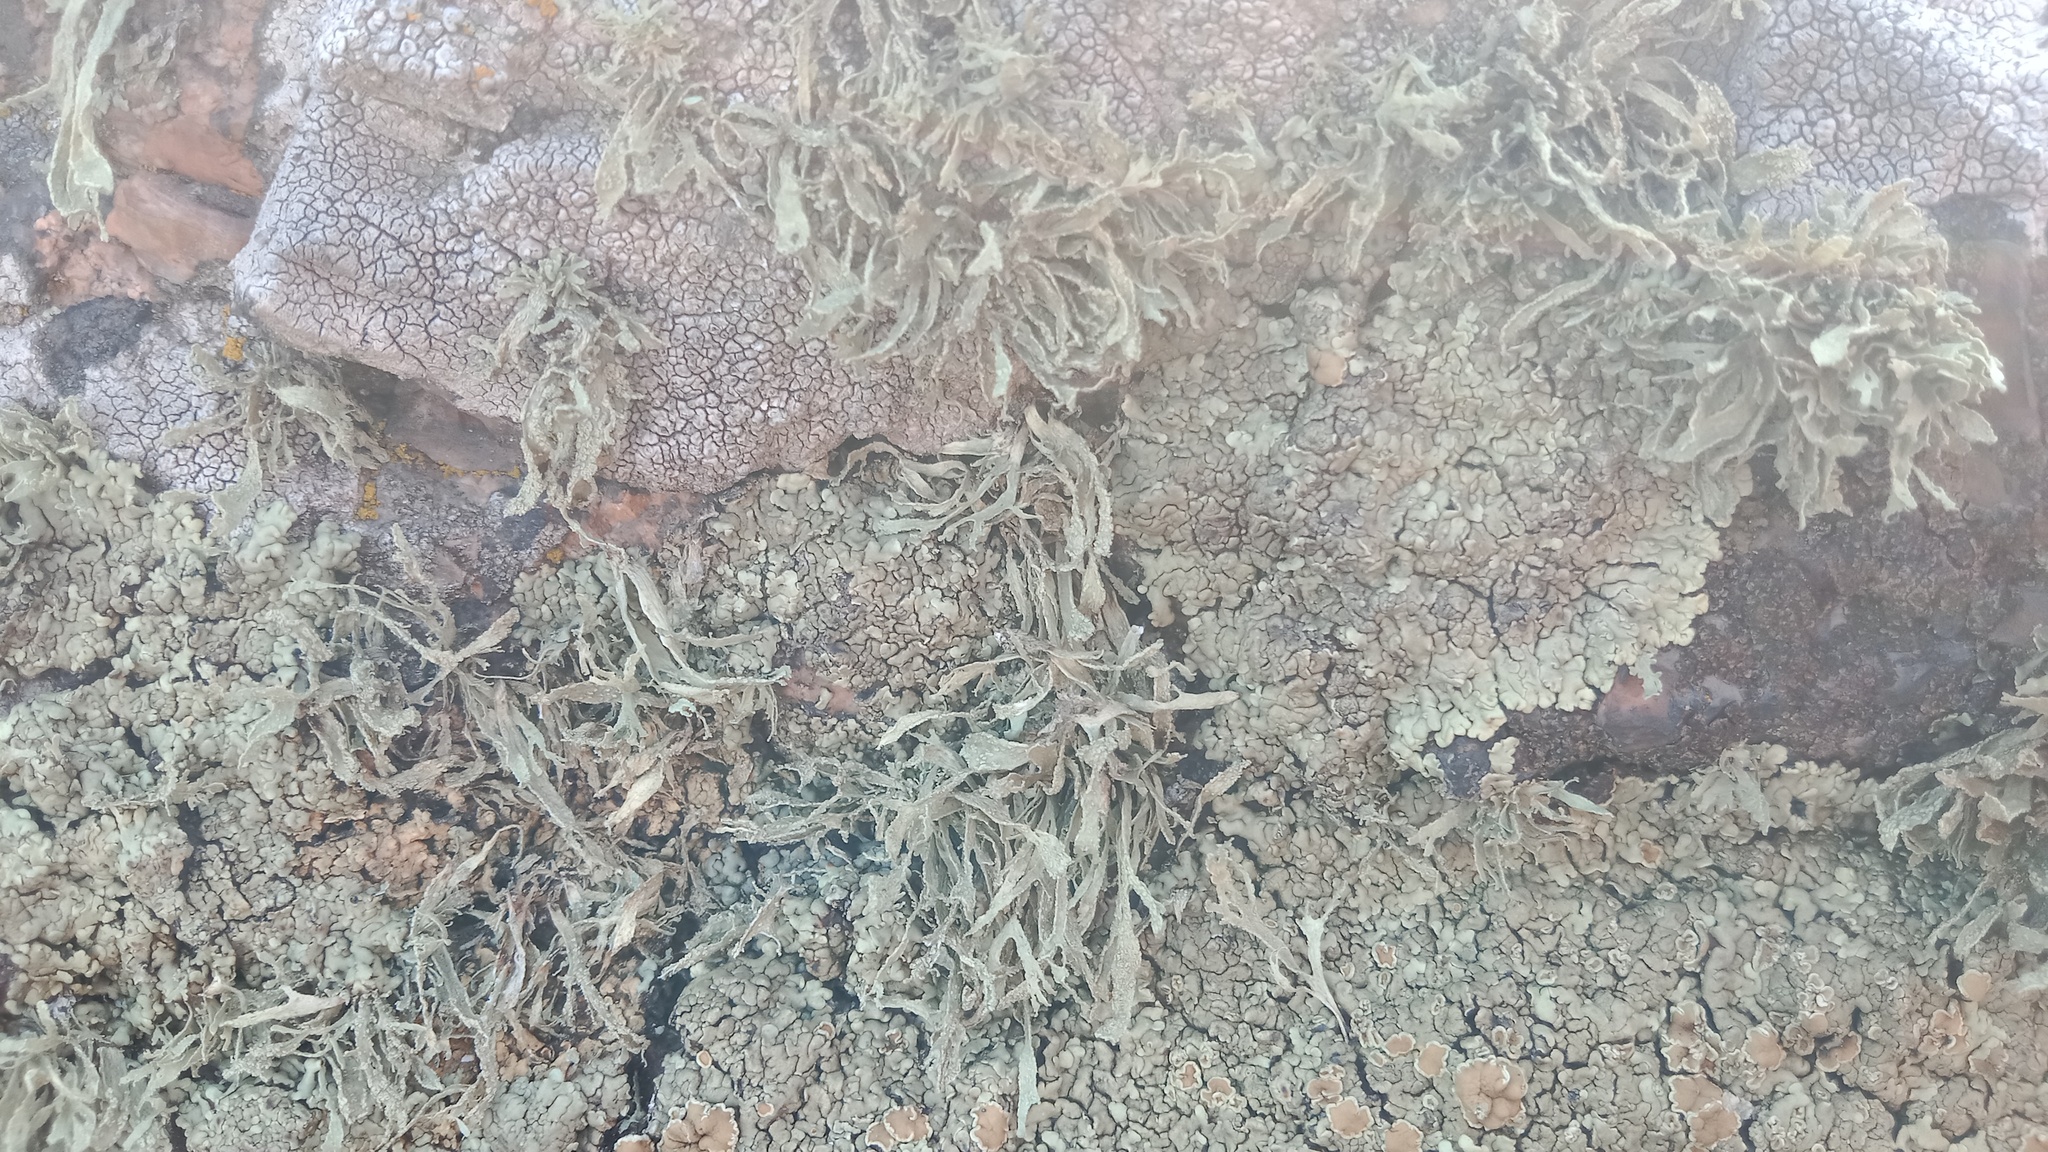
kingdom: Fungi
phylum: Ascomycota
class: Lecanoromycetes
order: Lecanorales
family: Ramalinaceae
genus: Ramalina
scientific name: Ramalina polymorpha
